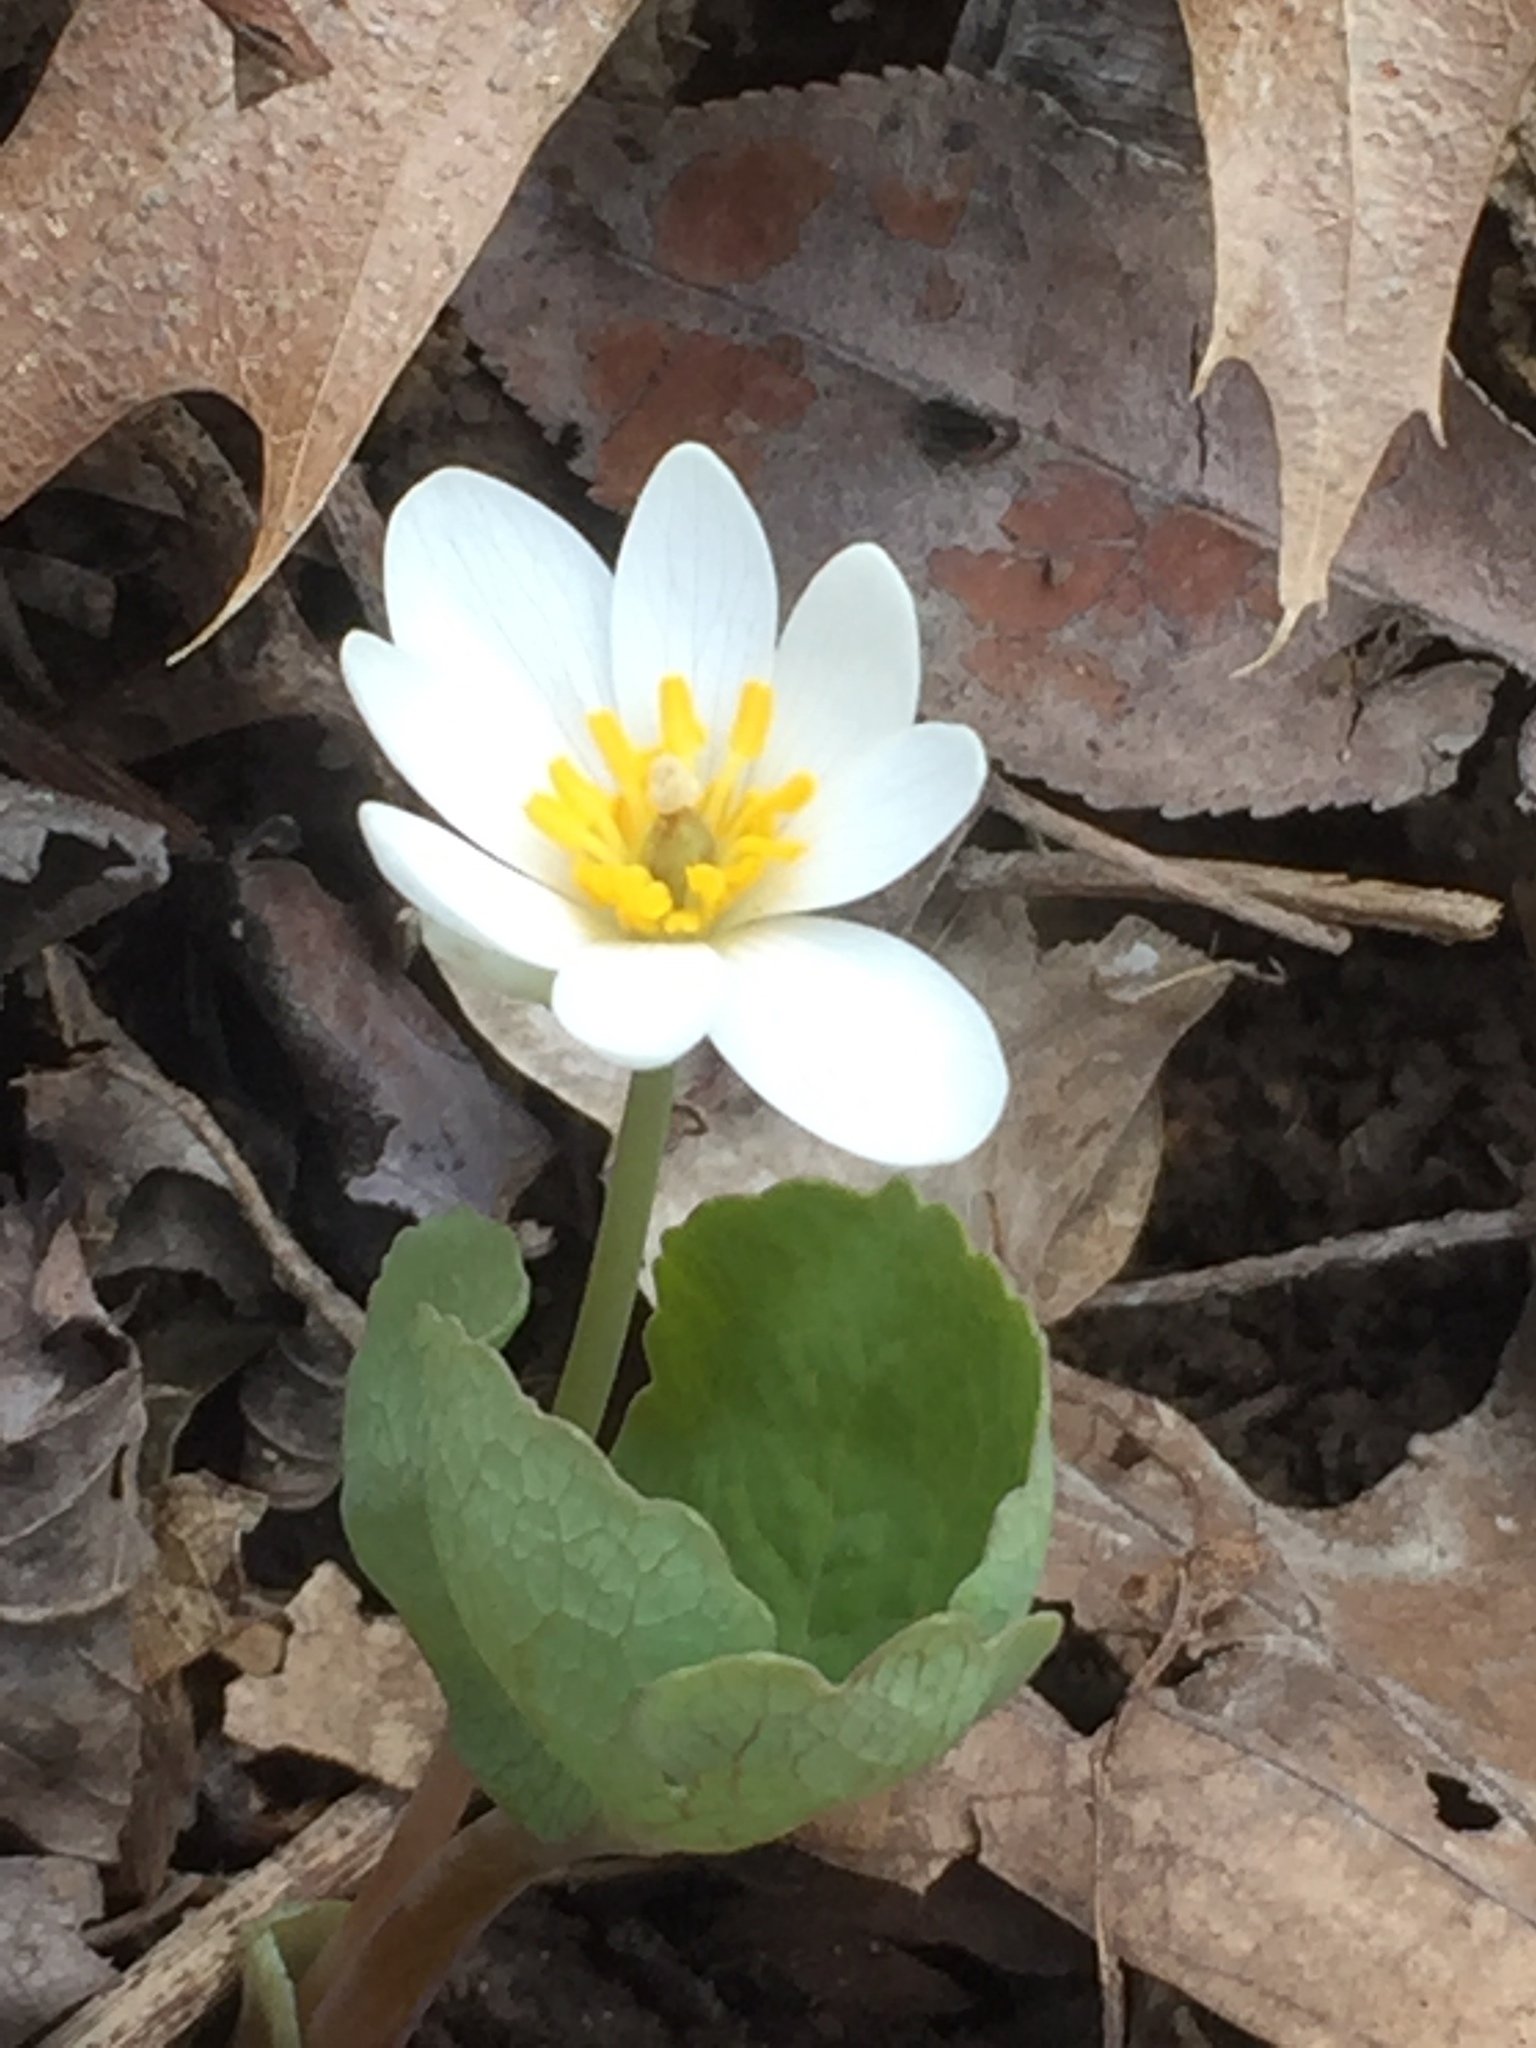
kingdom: Plantae
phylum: Tracheophyta
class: Magnoliopsida
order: Ranunculales
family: Papaveraceae
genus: Sanguinaria
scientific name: Sanguinaria canadensis
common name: Bloodroot
